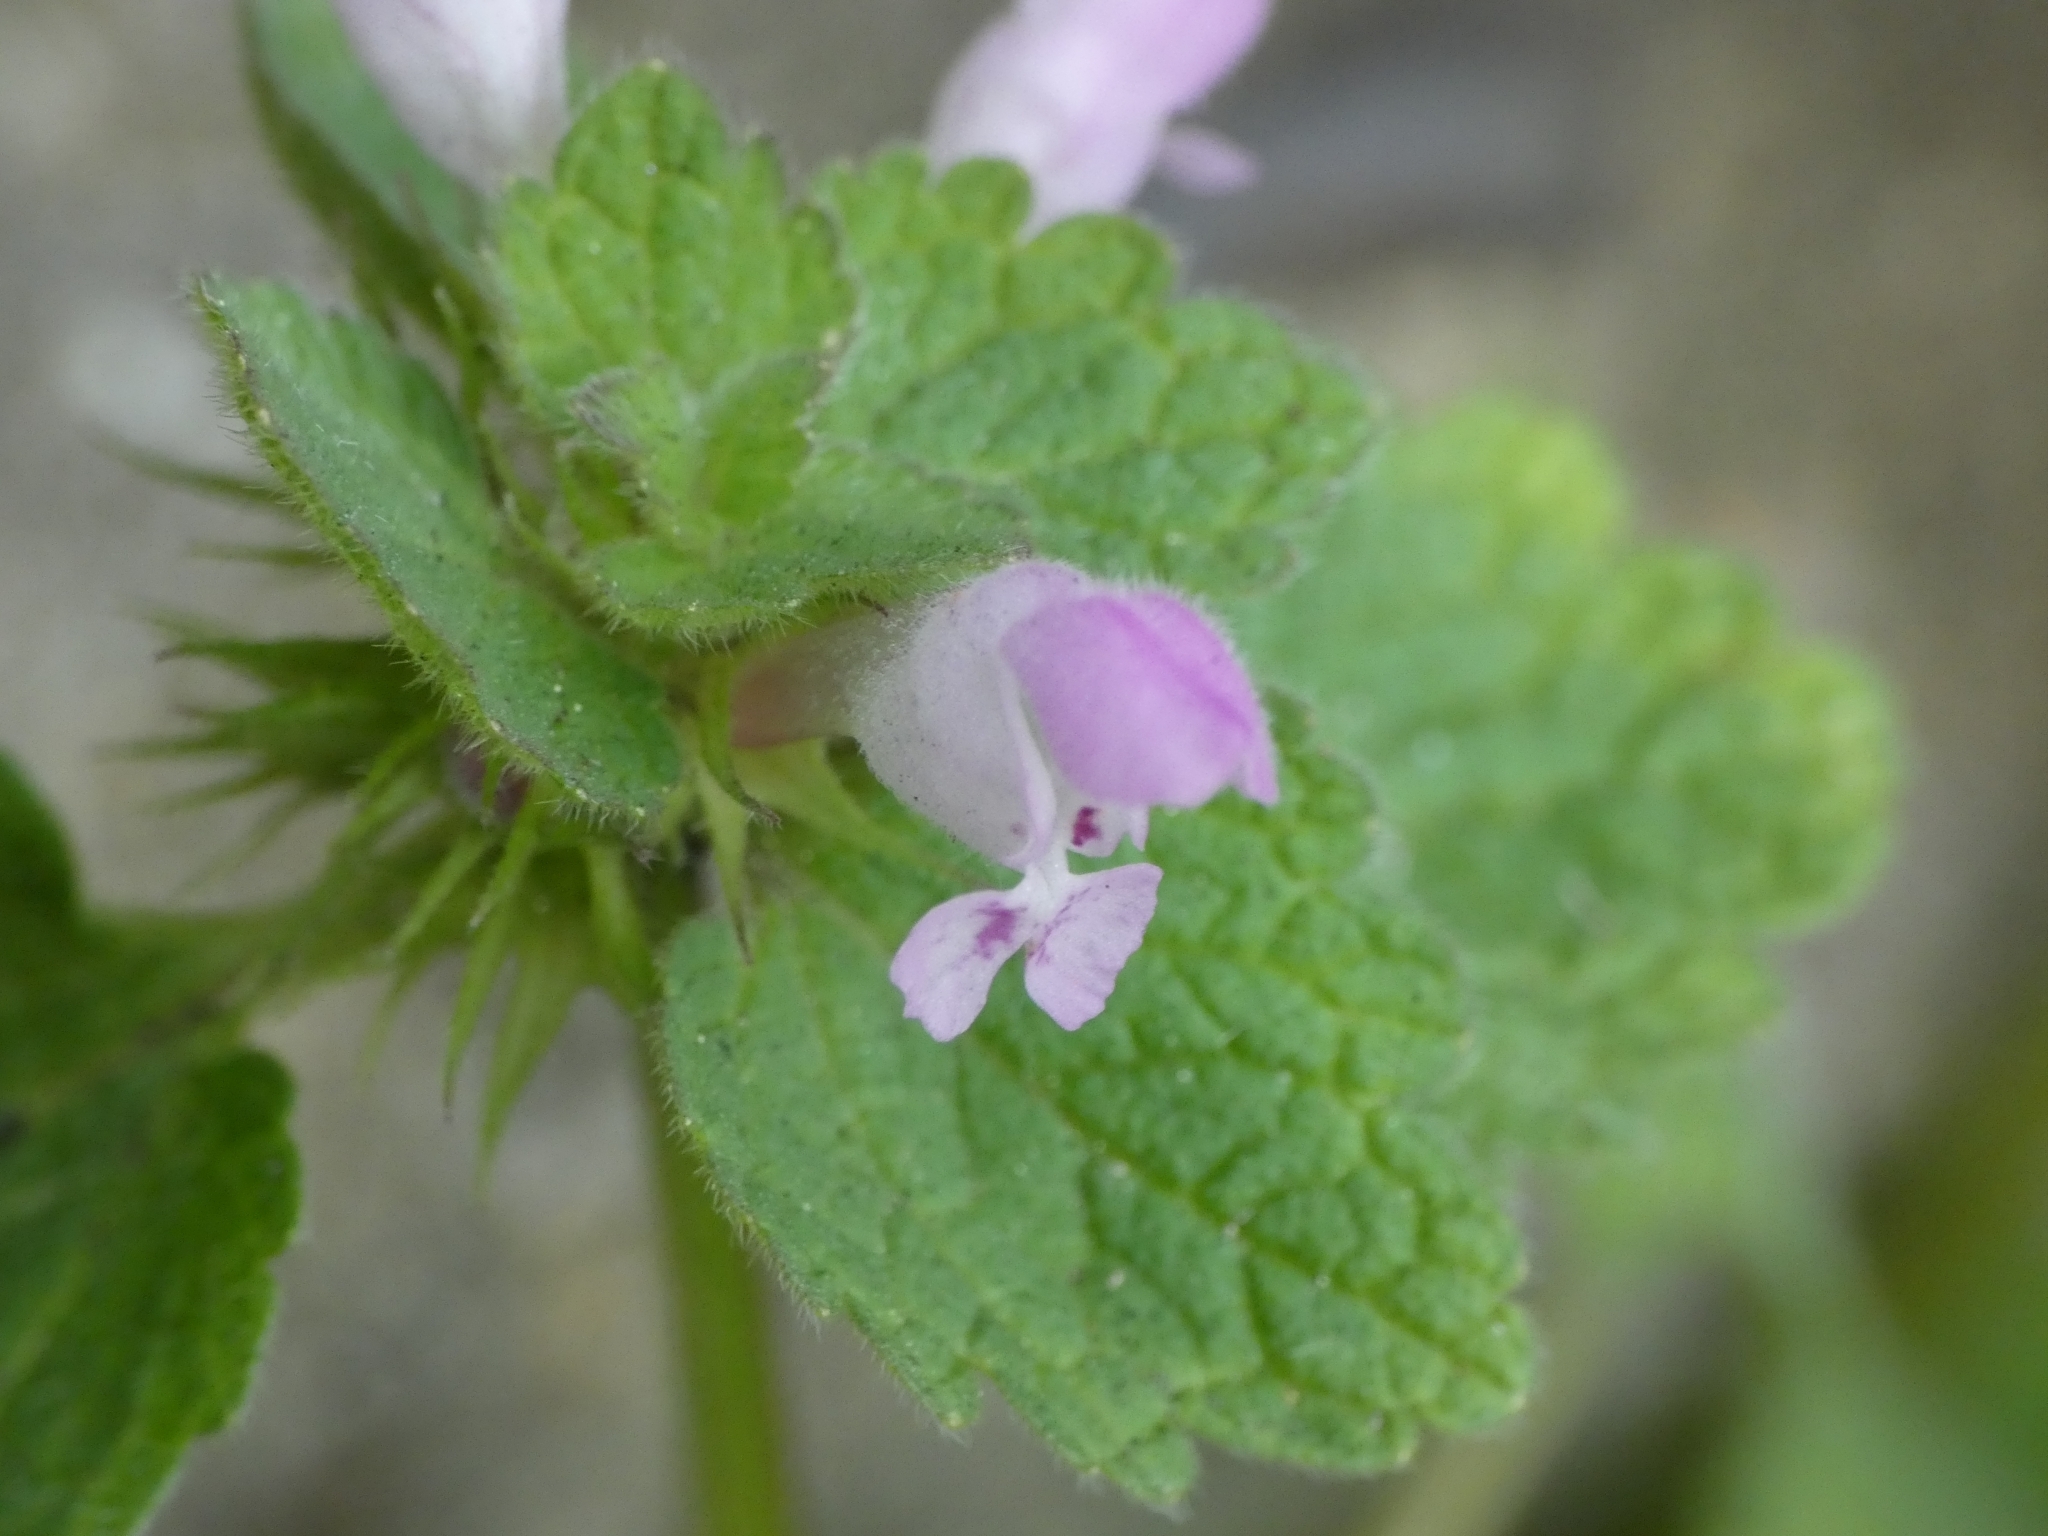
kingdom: Plantae
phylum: Tracheophyta
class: Magnoliopsida
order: Lamiales
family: Lamiaceae
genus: Lamium
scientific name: Lamium purpureum
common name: Red dead-nettle
